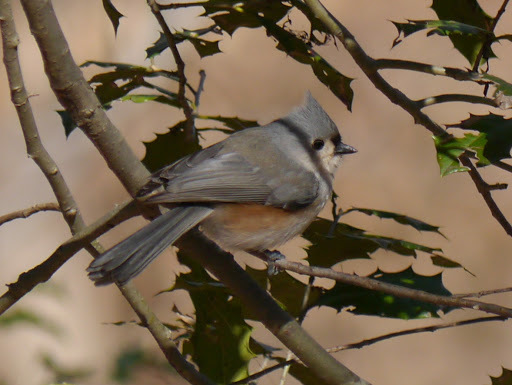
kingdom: Animalia
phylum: Chordata
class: Aves
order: Passeriformes
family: Paridae
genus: Baeolophus
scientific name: Baeolophus bicolor
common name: Tufted titmouse
